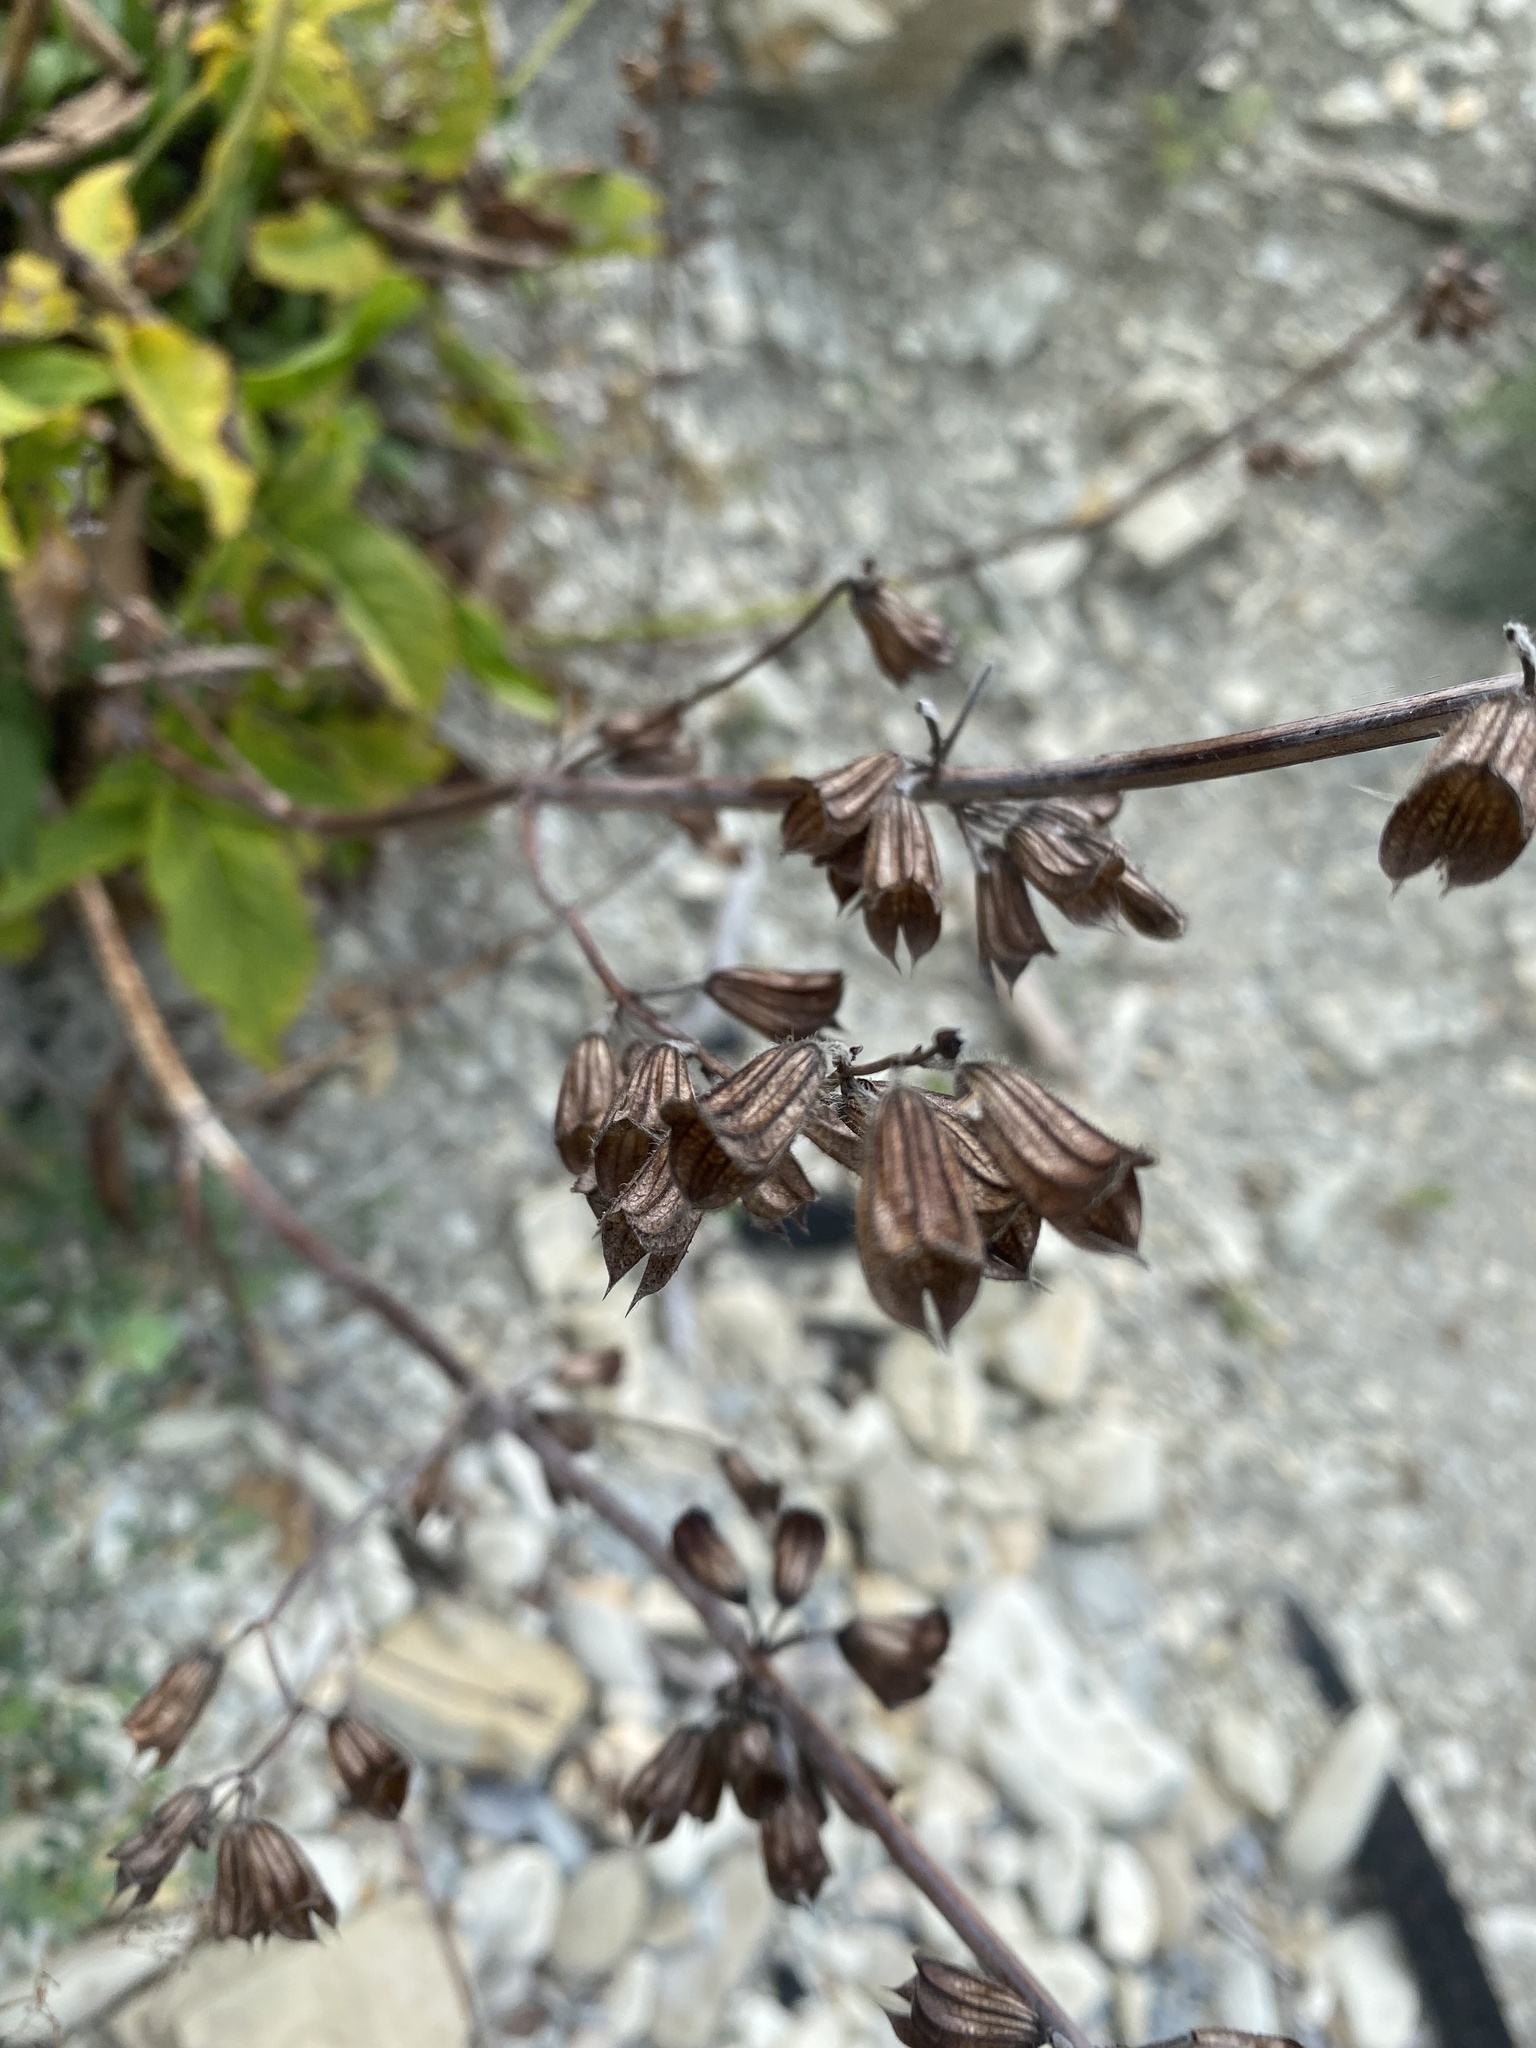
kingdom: Plantae
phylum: Tracheophyta
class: Magnoliopsida
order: Lamiales
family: Lamiaceae
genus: Salvia
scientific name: Salvia ringens
